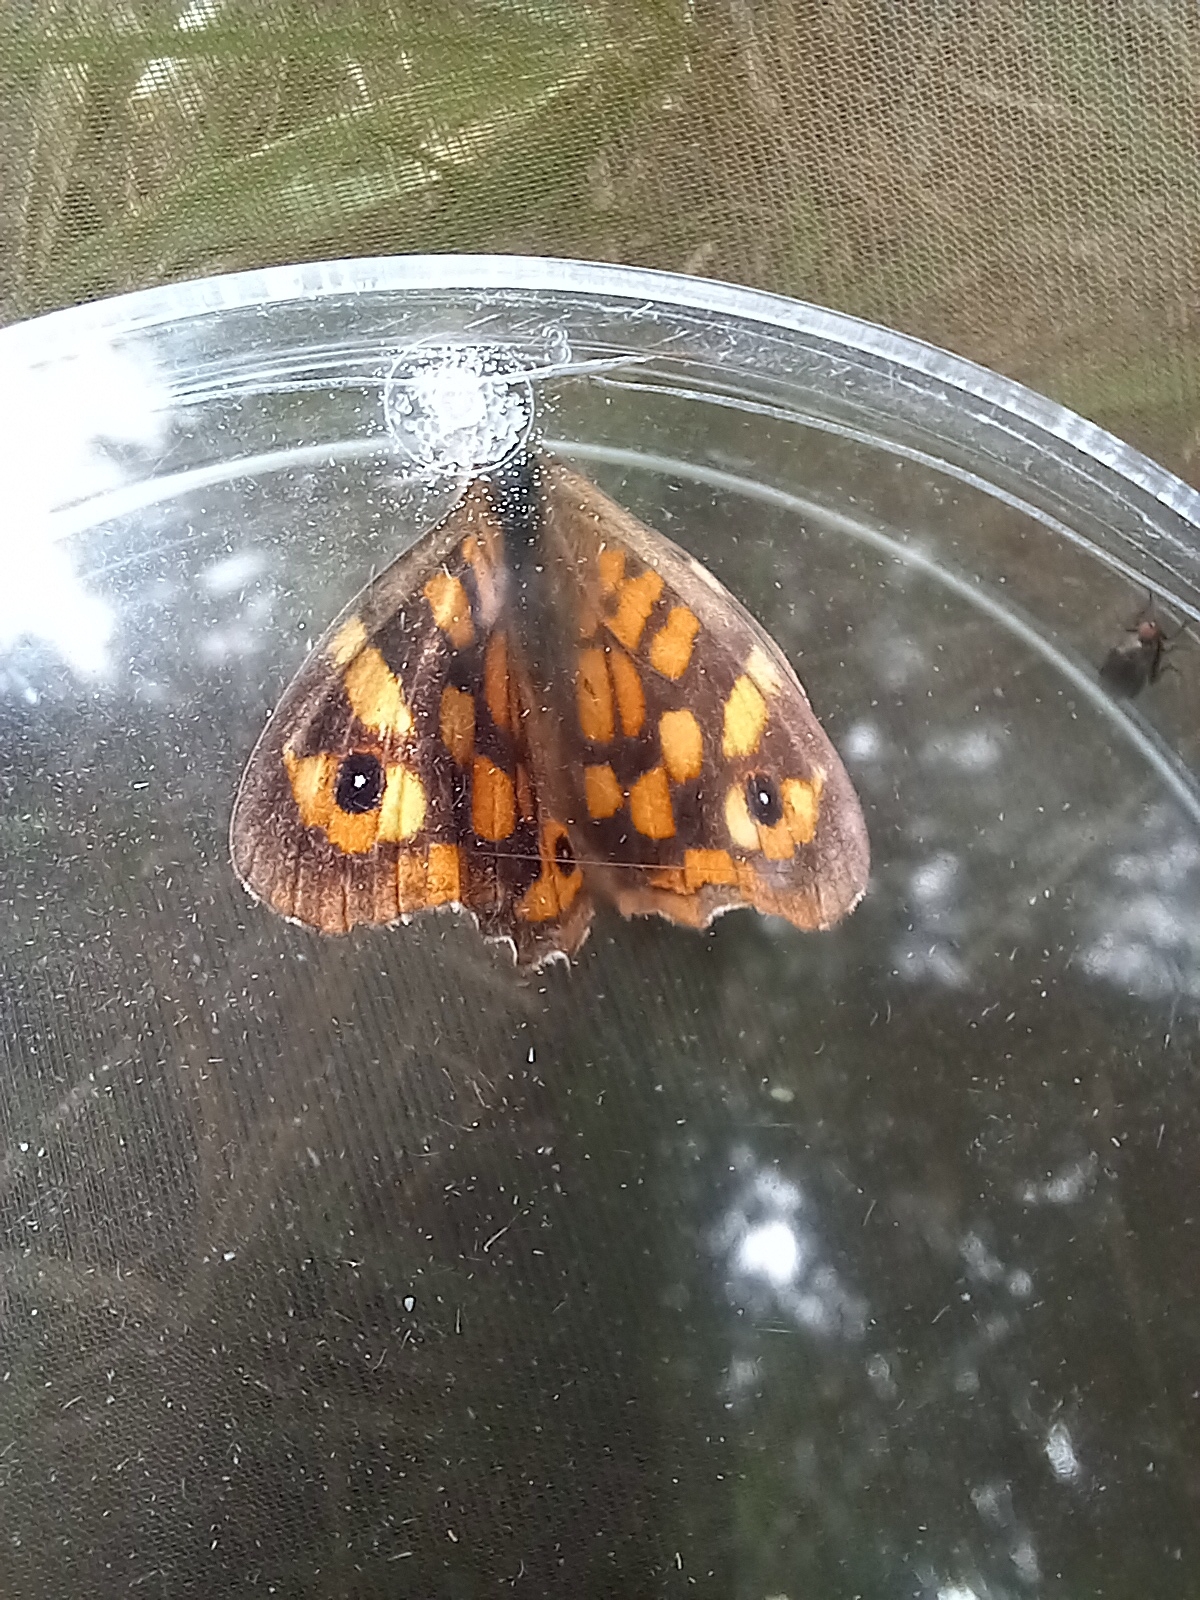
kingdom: Animalia
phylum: Arthropoda
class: Insecta
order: Lepidoptera
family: Nymphalidae
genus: Pararge
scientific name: Pararge aegeria
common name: Speckled wood
